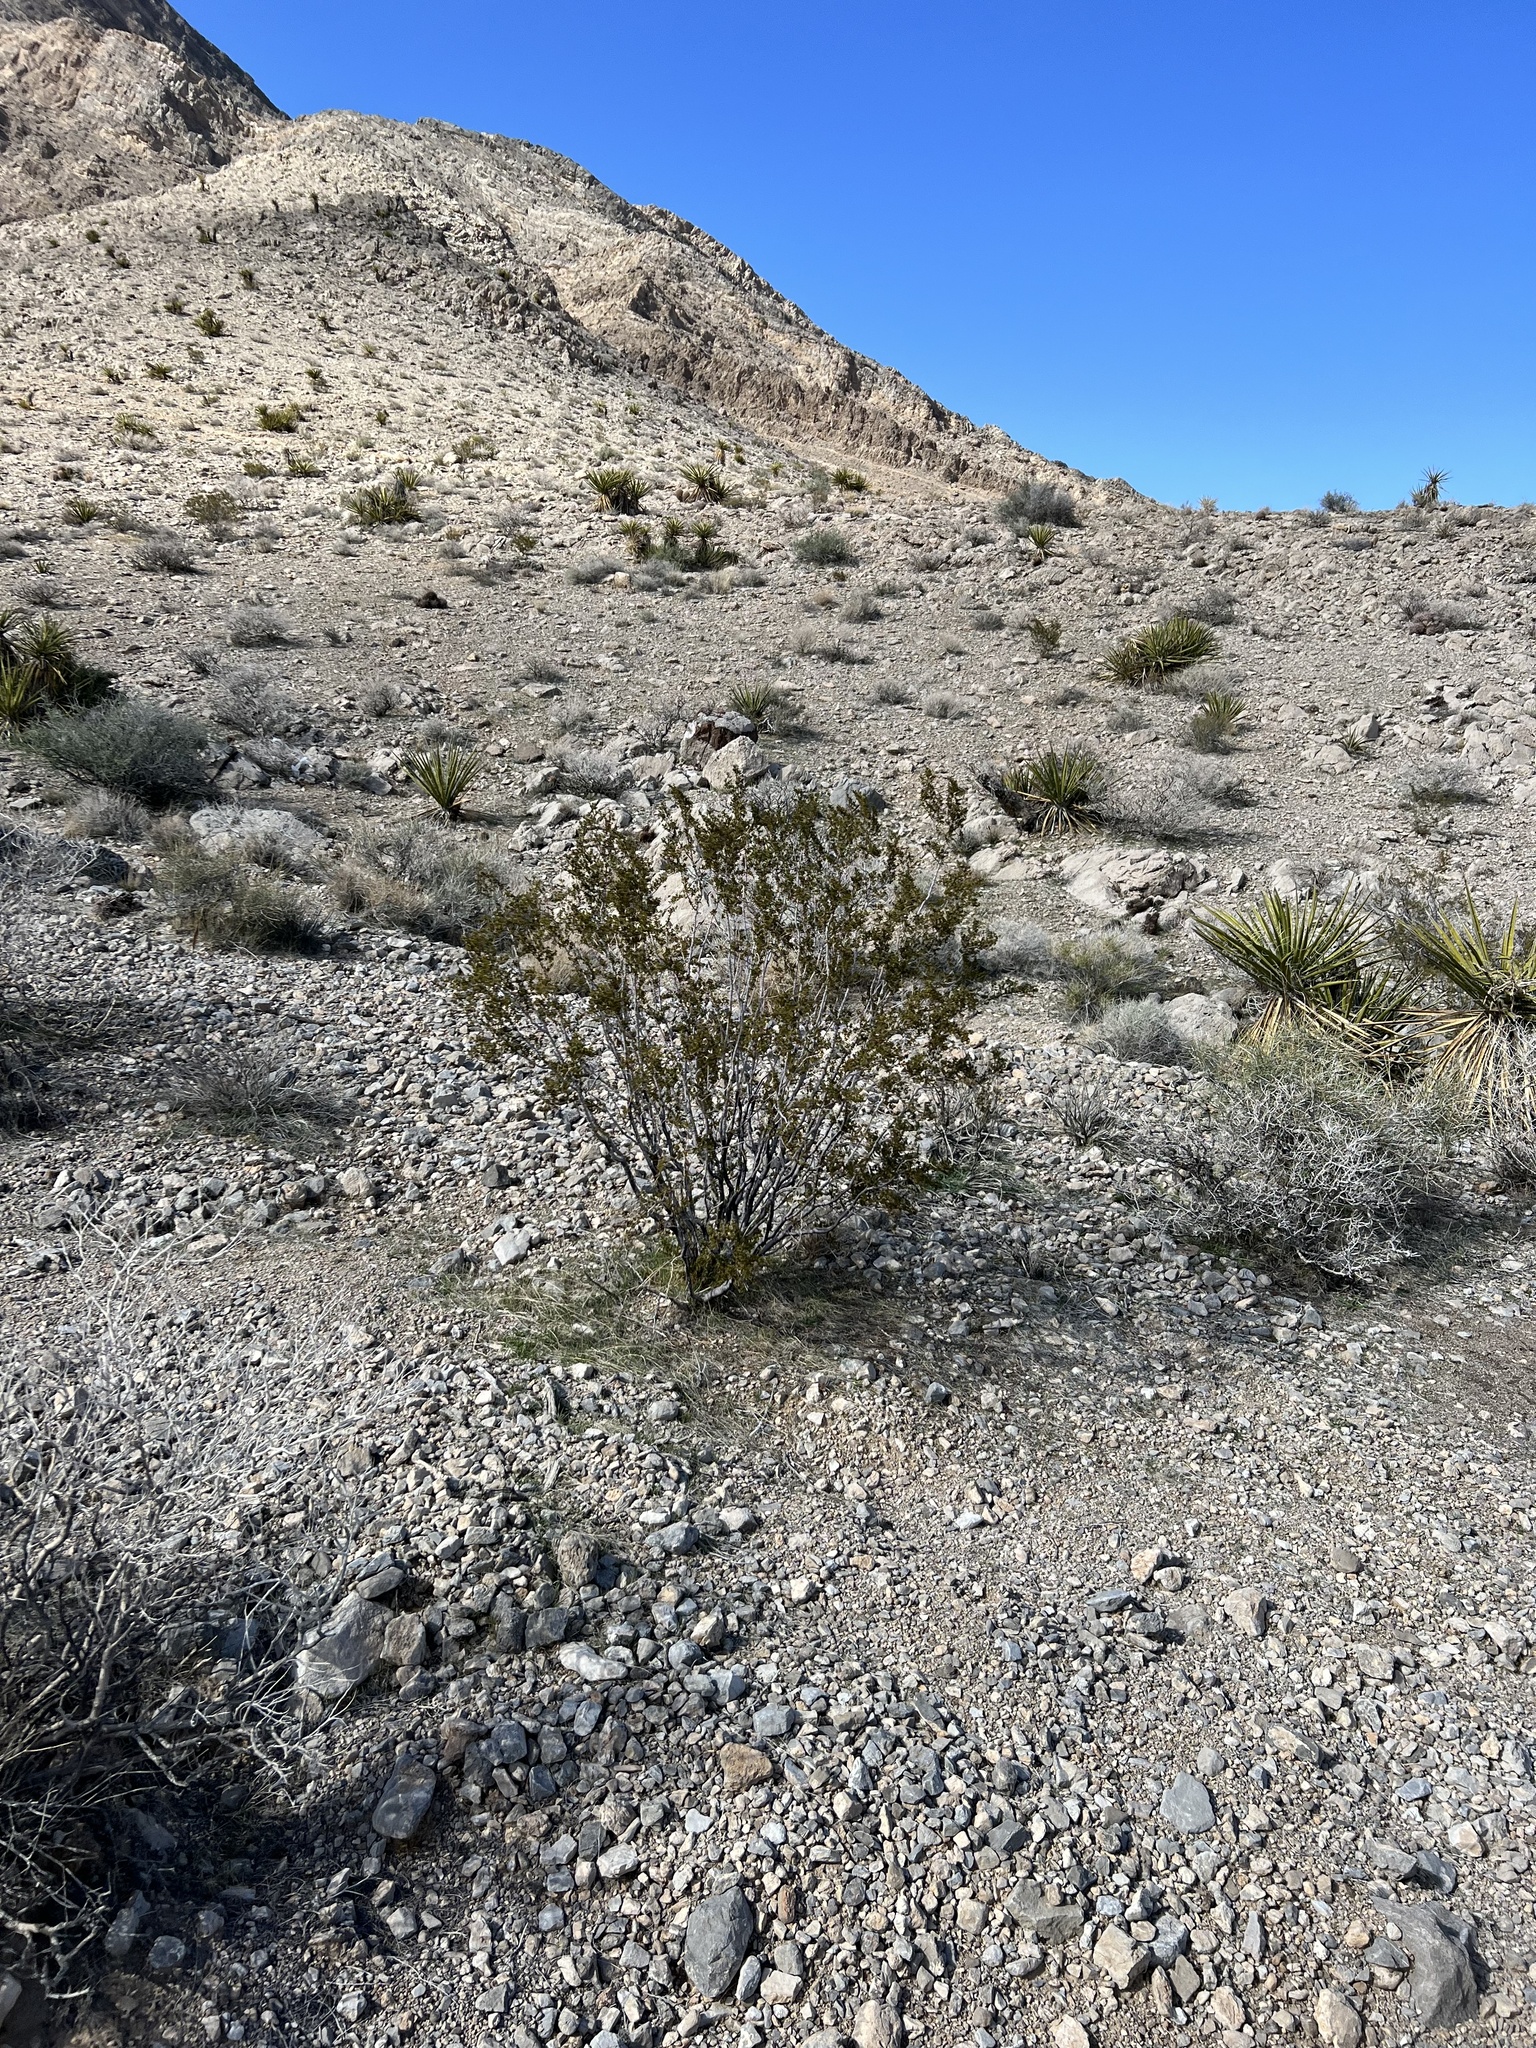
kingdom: Plantae
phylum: Tracheophyta
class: Magnoliopsida
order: Zygophyllales
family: Zygophyllaceae
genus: Larrea
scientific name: Larrea tridentata
